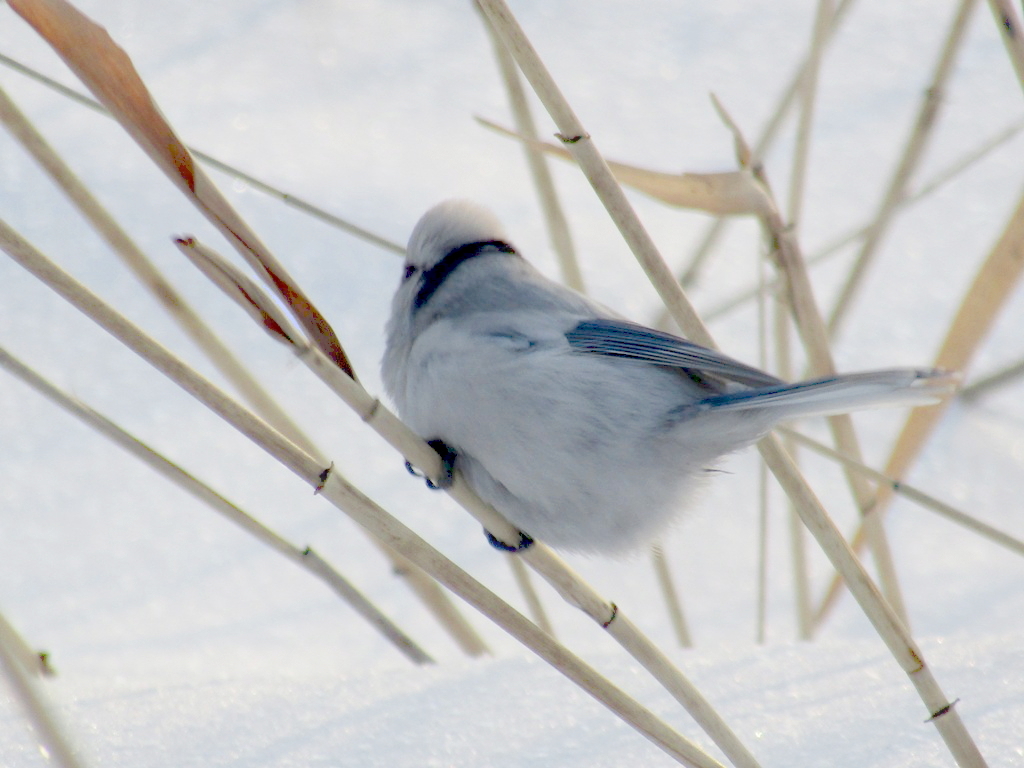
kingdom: Animalia
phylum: Chordata
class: Aves
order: Passeriformes
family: Paridae
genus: Cyanistes
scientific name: Cyanistes cyanus
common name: Azure tit
